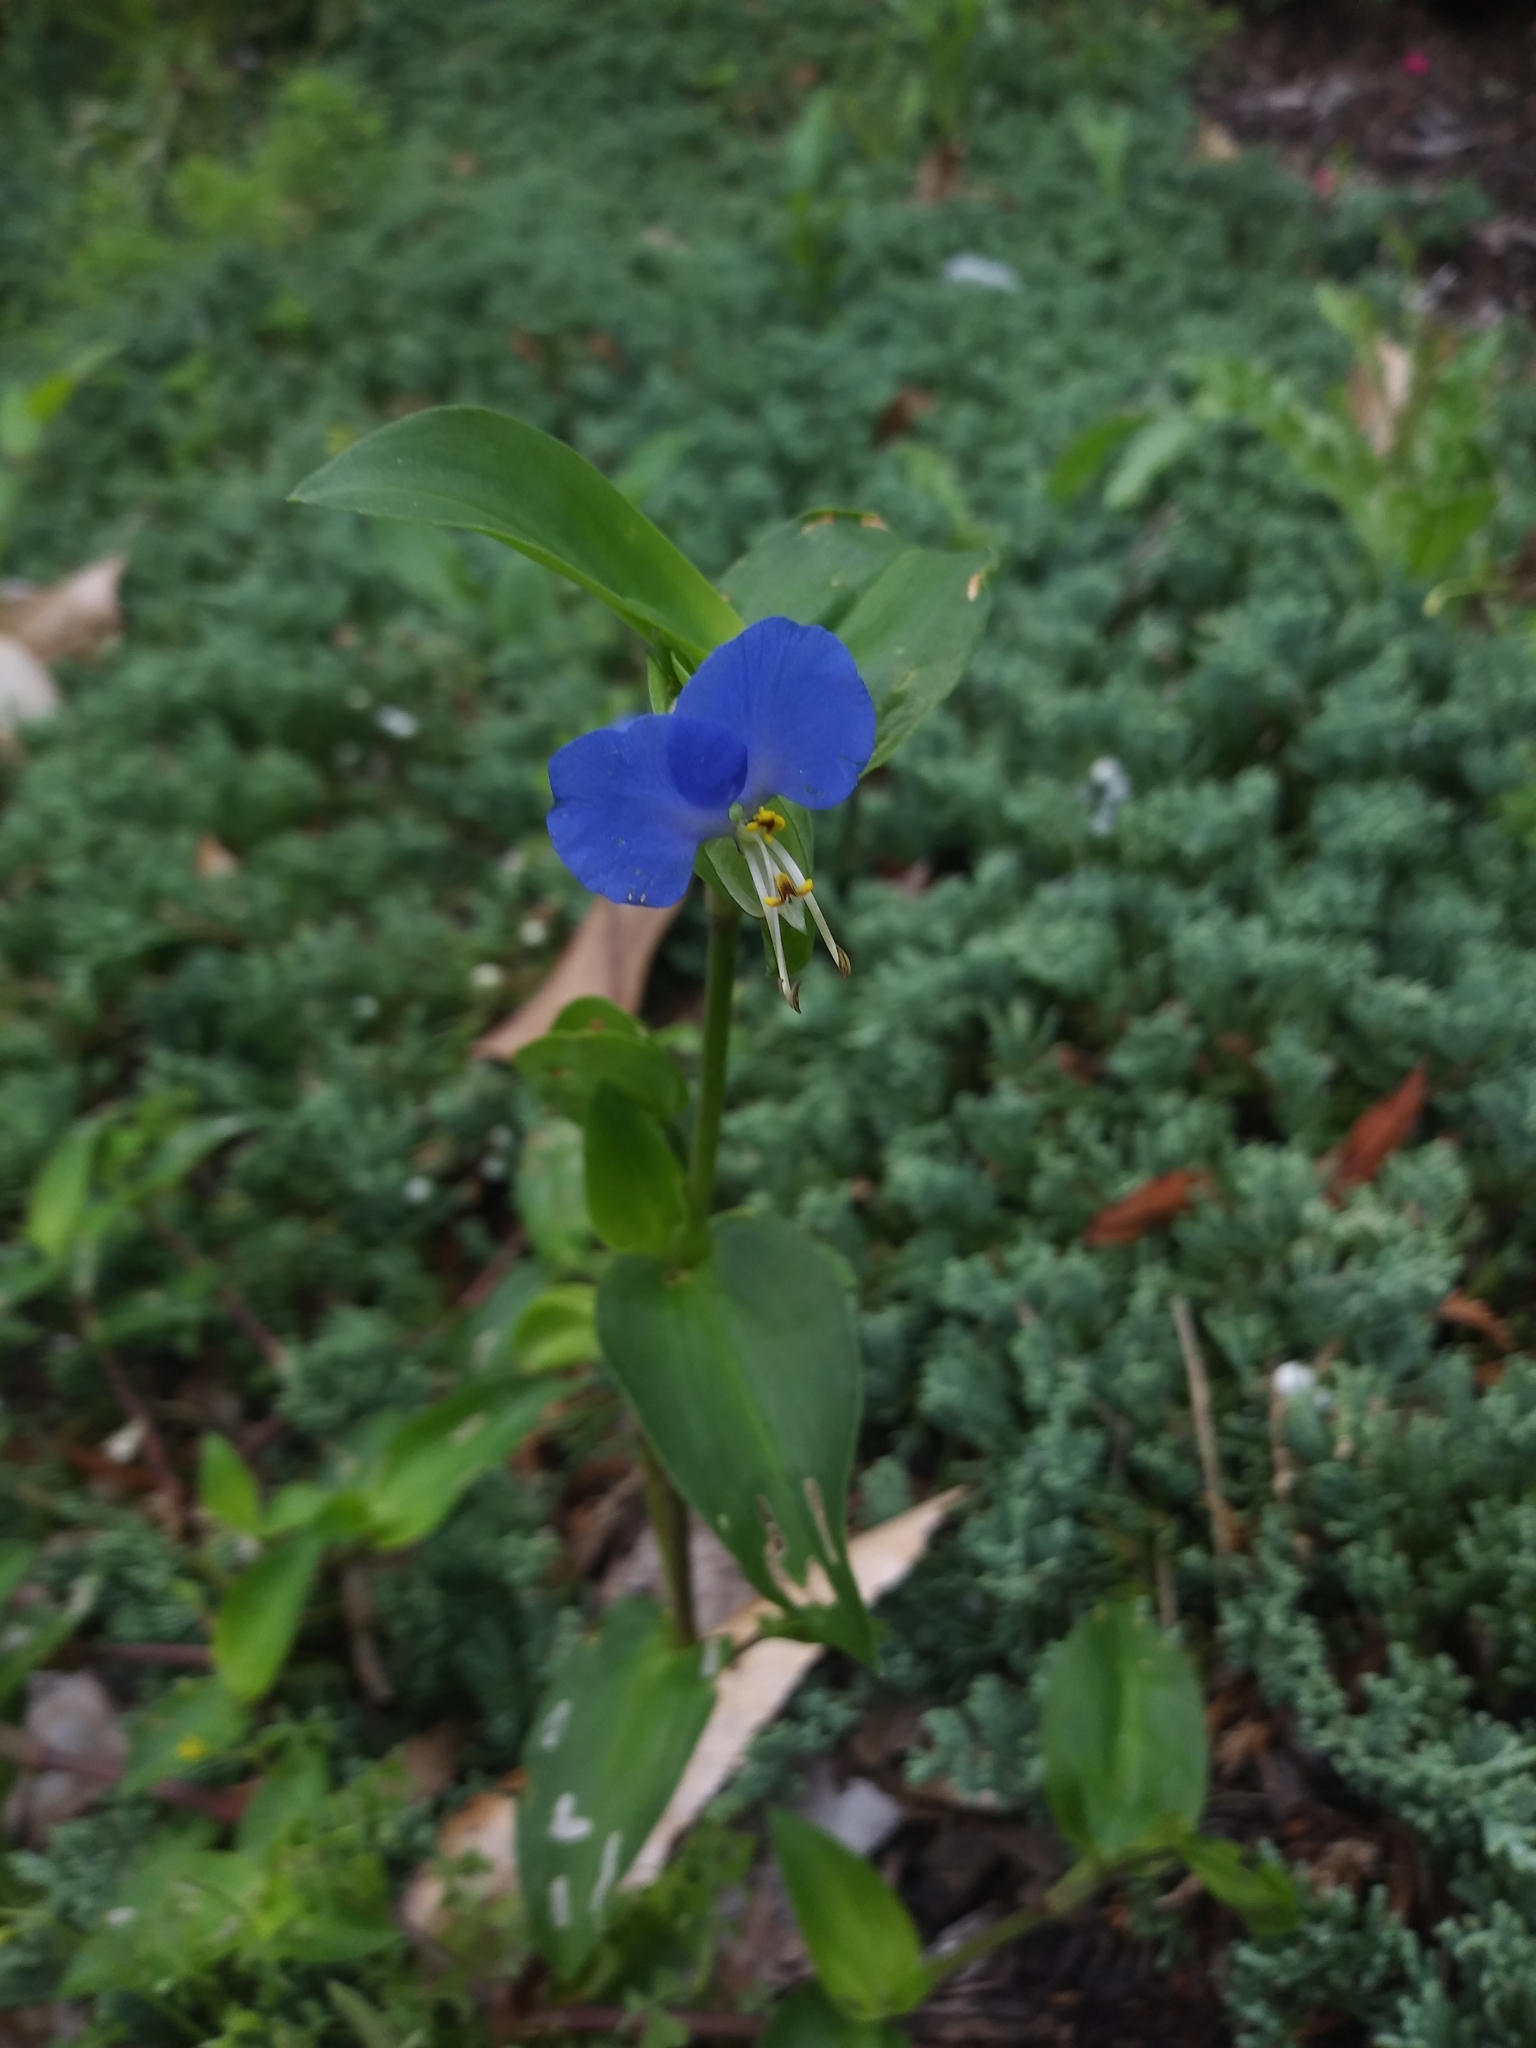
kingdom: Plantae
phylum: Tracheophyta
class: Liliopsida
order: Commelinales
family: Commelinaceae
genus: Commelina
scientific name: Commelina communis
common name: Asiatic dayflower
